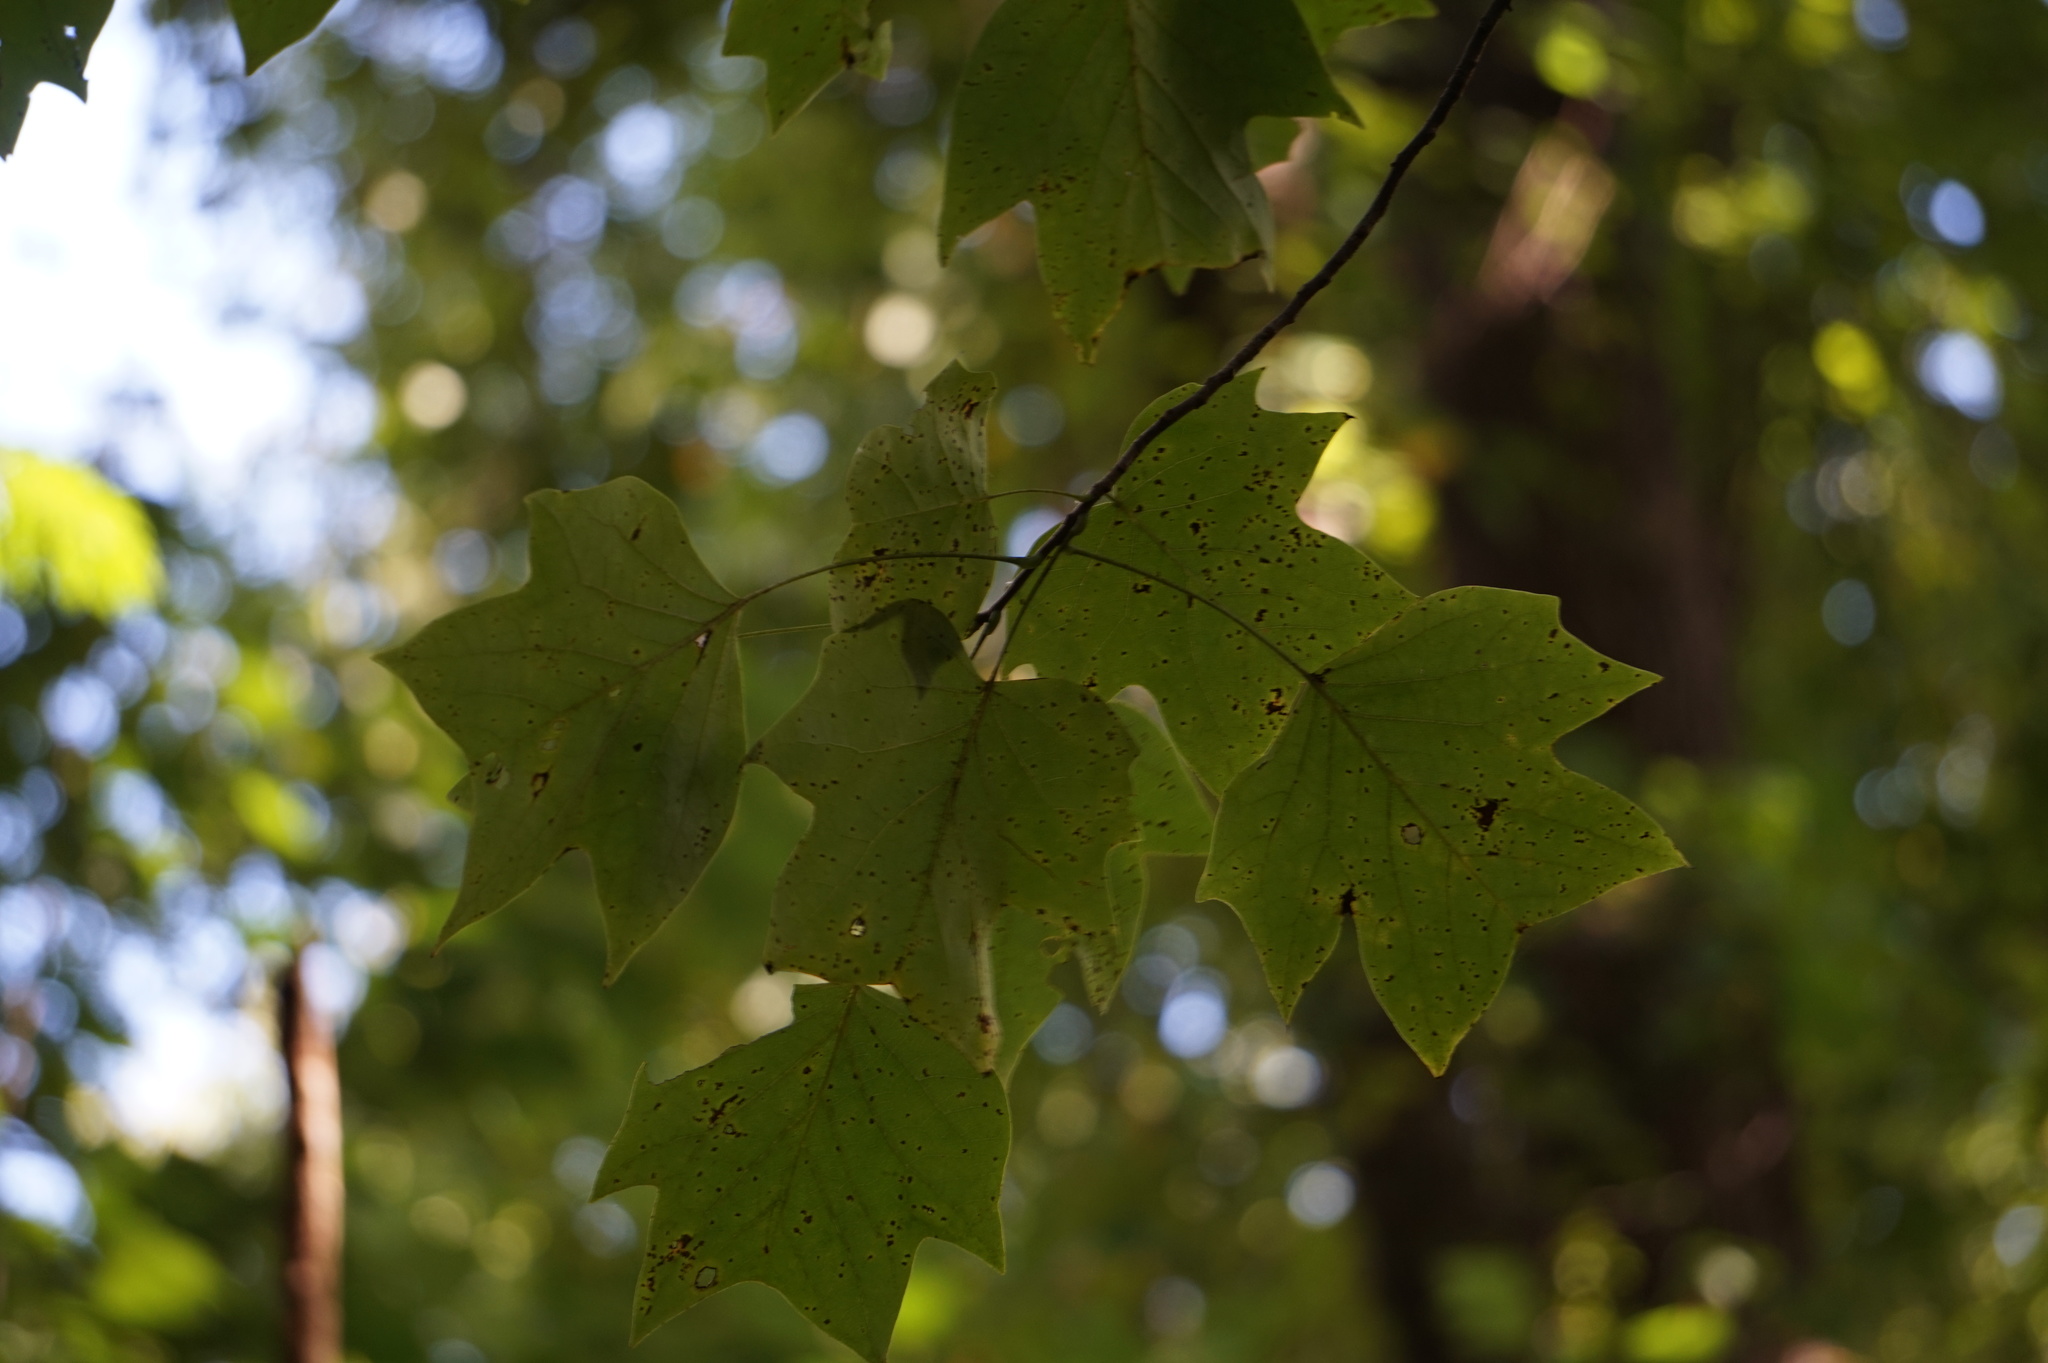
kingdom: Plantae
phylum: Tracheophyta
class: Magnoliopsida
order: Magnoliales
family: Magnoliaceae
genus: Liriodendron
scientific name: Liriodendron tulipifera
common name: Tulip tree
